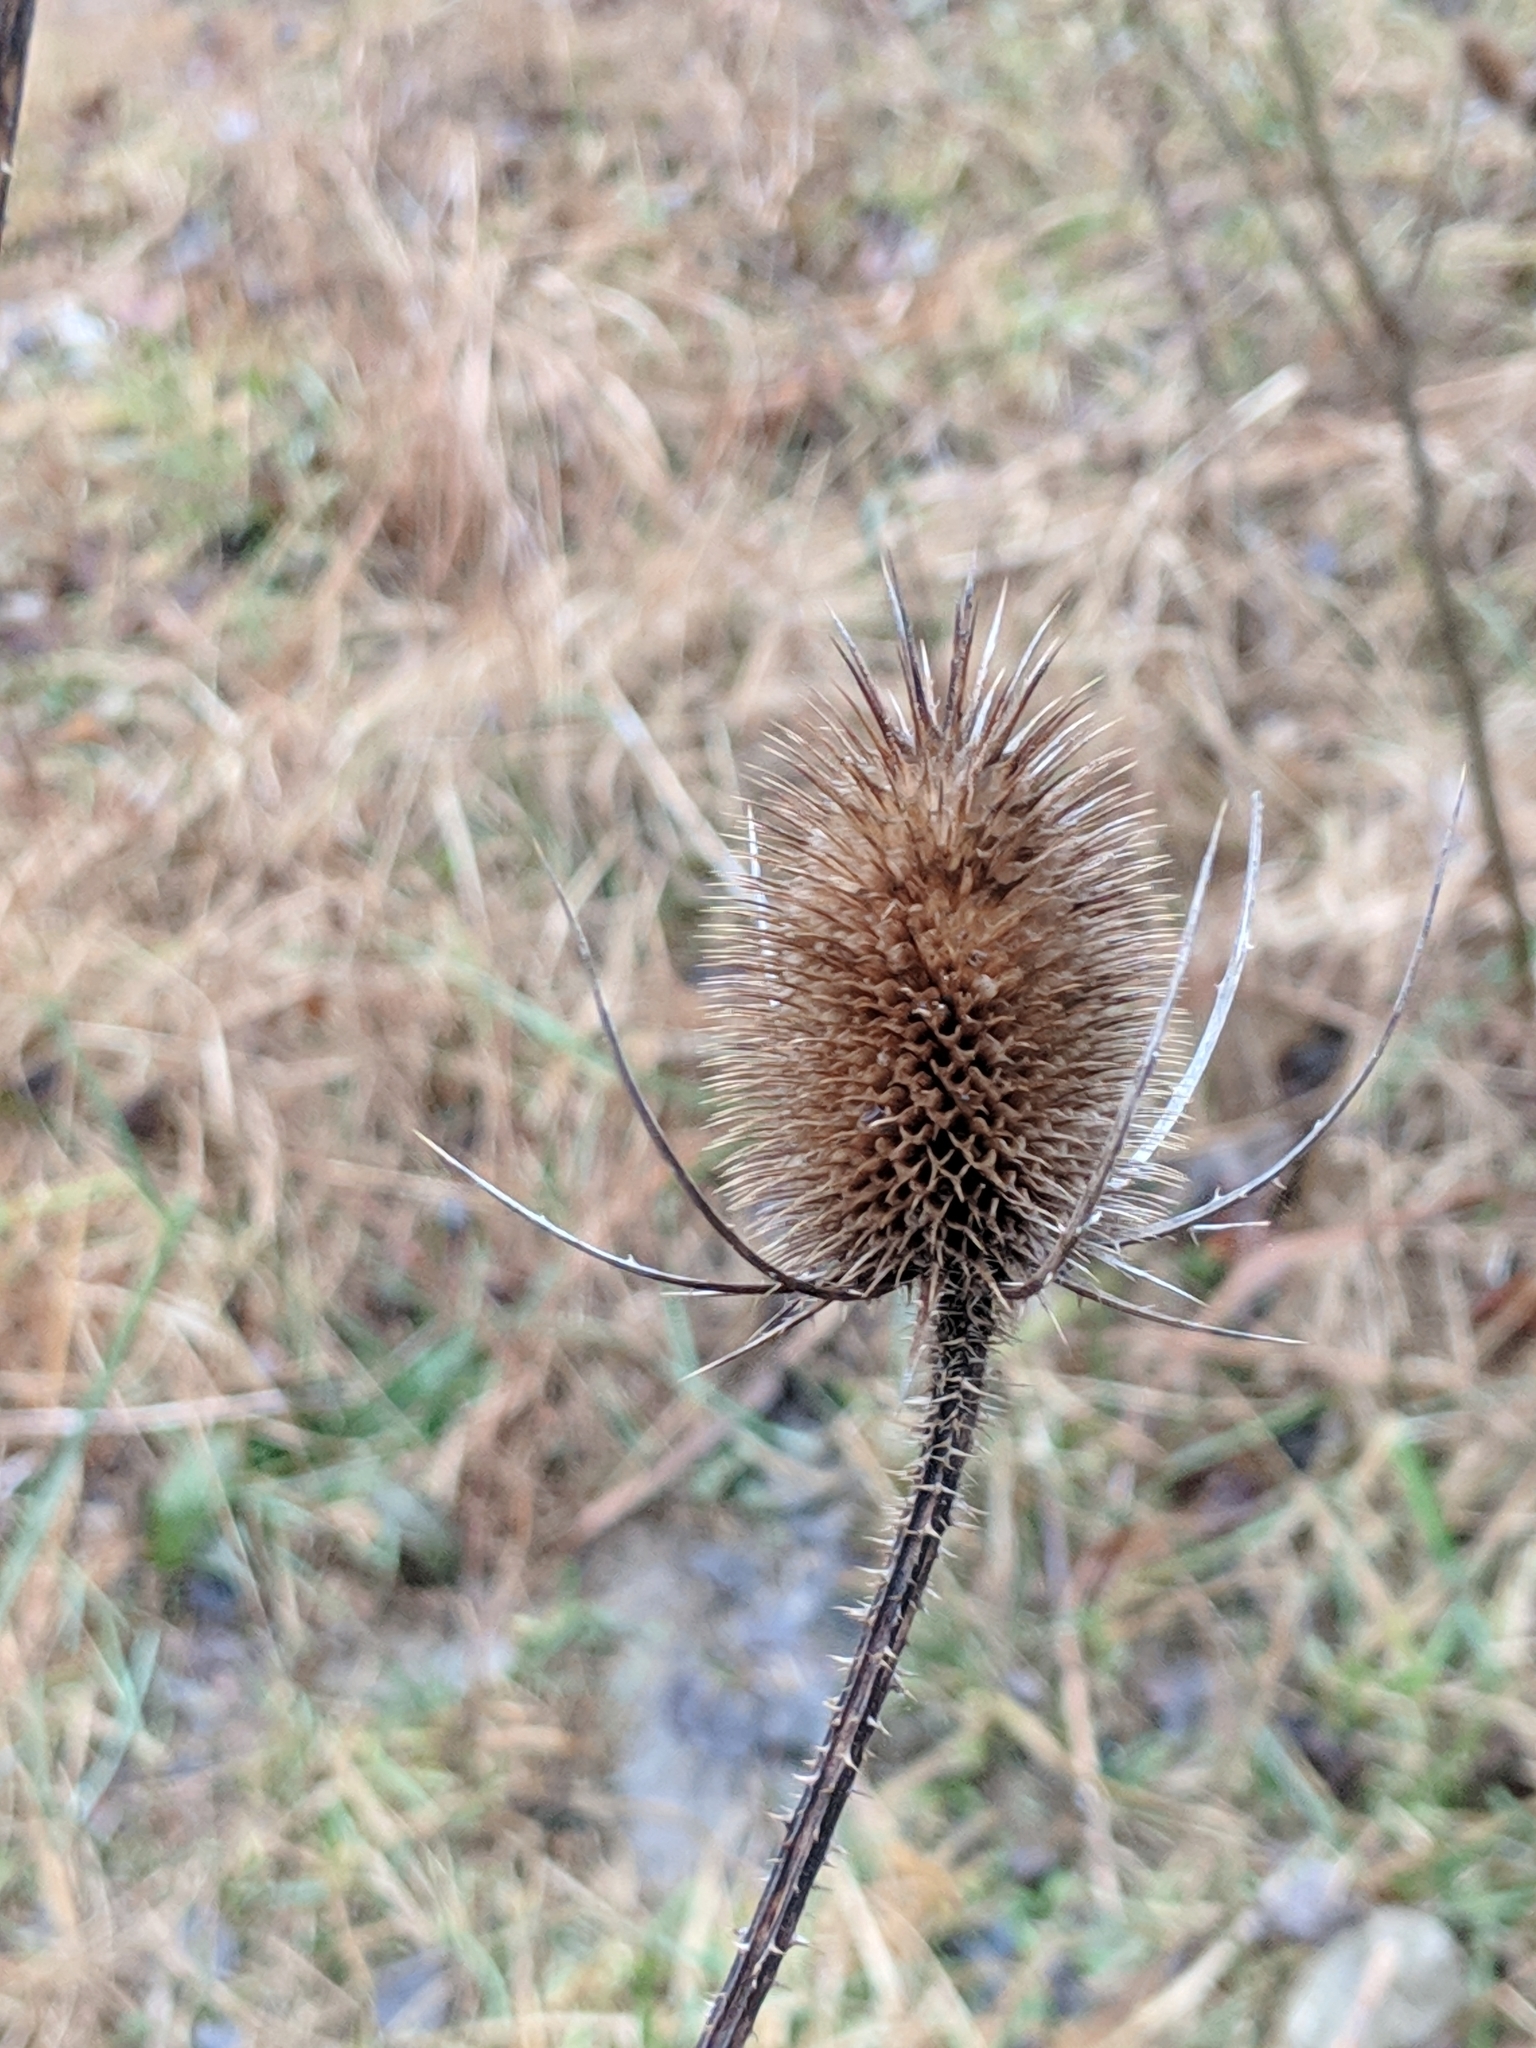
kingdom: Plantae
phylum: Tracheophyta
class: Magnoliopsida
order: Dipsacales
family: Caprifoliaceae
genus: Dipsacus
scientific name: Dipsacus fullonum
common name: Teasel
